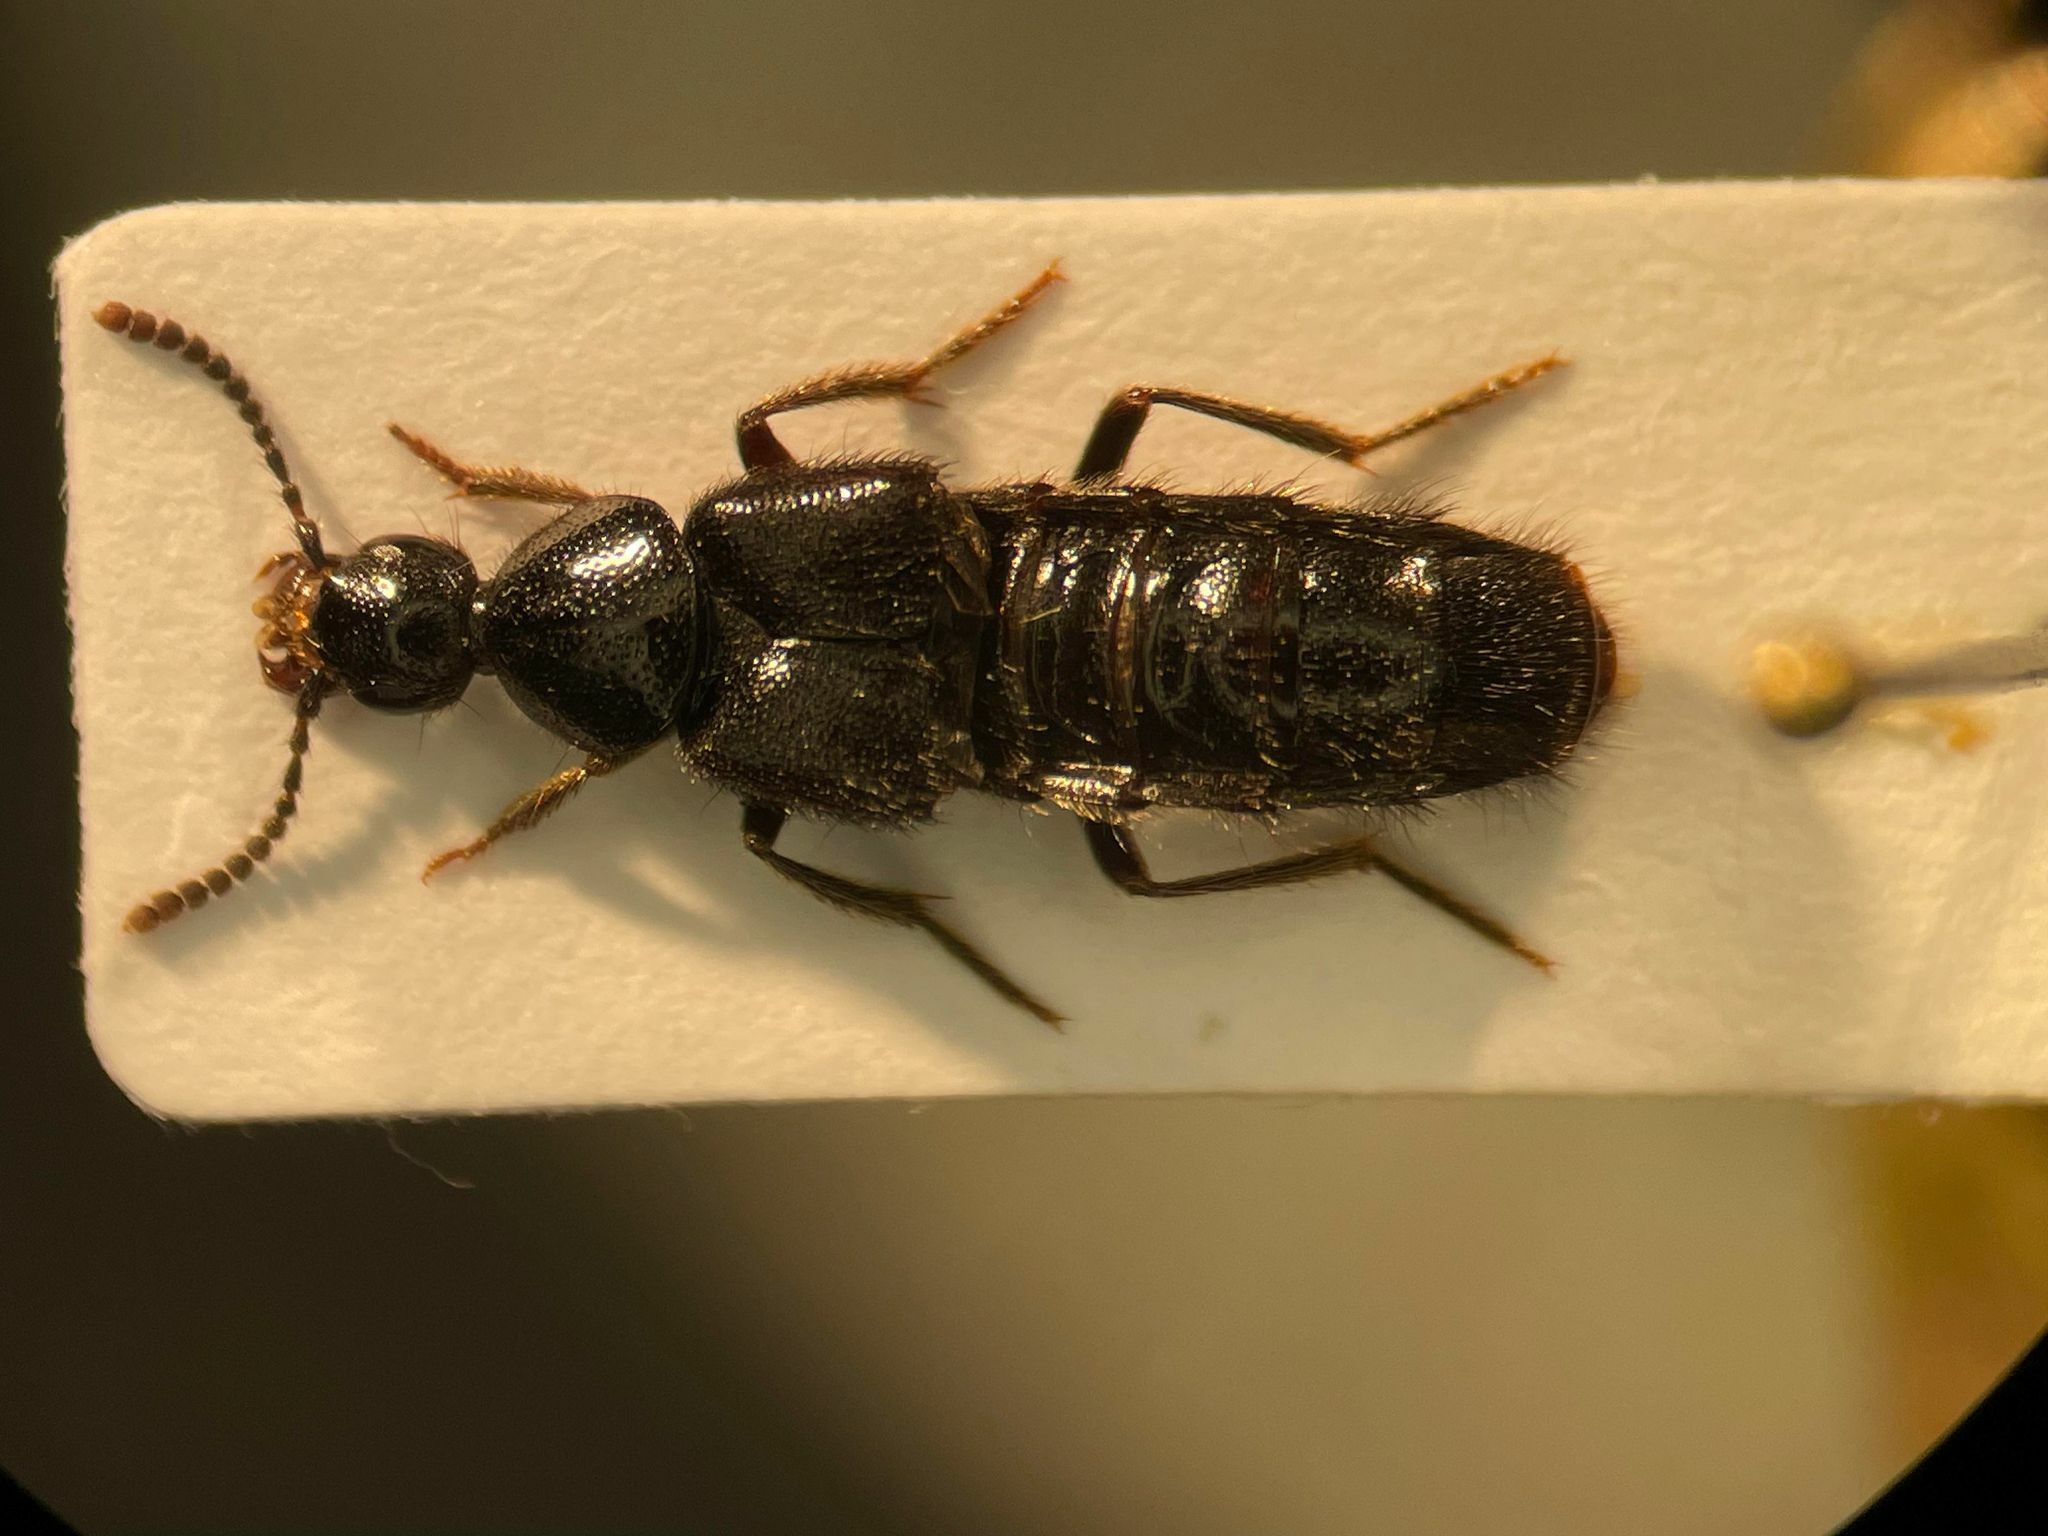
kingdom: Animalia
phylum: Arthropoda
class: Insecta
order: Coleoptera
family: Staphylinidae
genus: Tympanophorus
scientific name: Tympanophorus puncticollis
